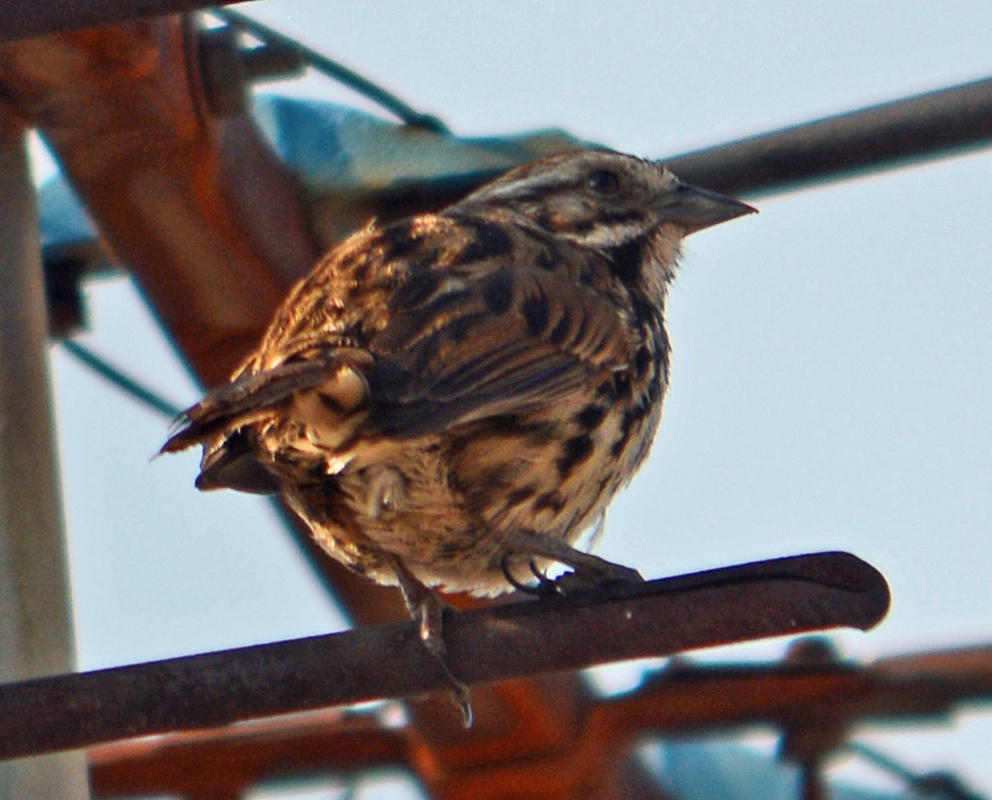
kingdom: Animalia
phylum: Chordata
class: Aves
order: Passeriformes
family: Passerellidae
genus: Melospiza
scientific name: Melospiza melodia
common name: Song sparrow
